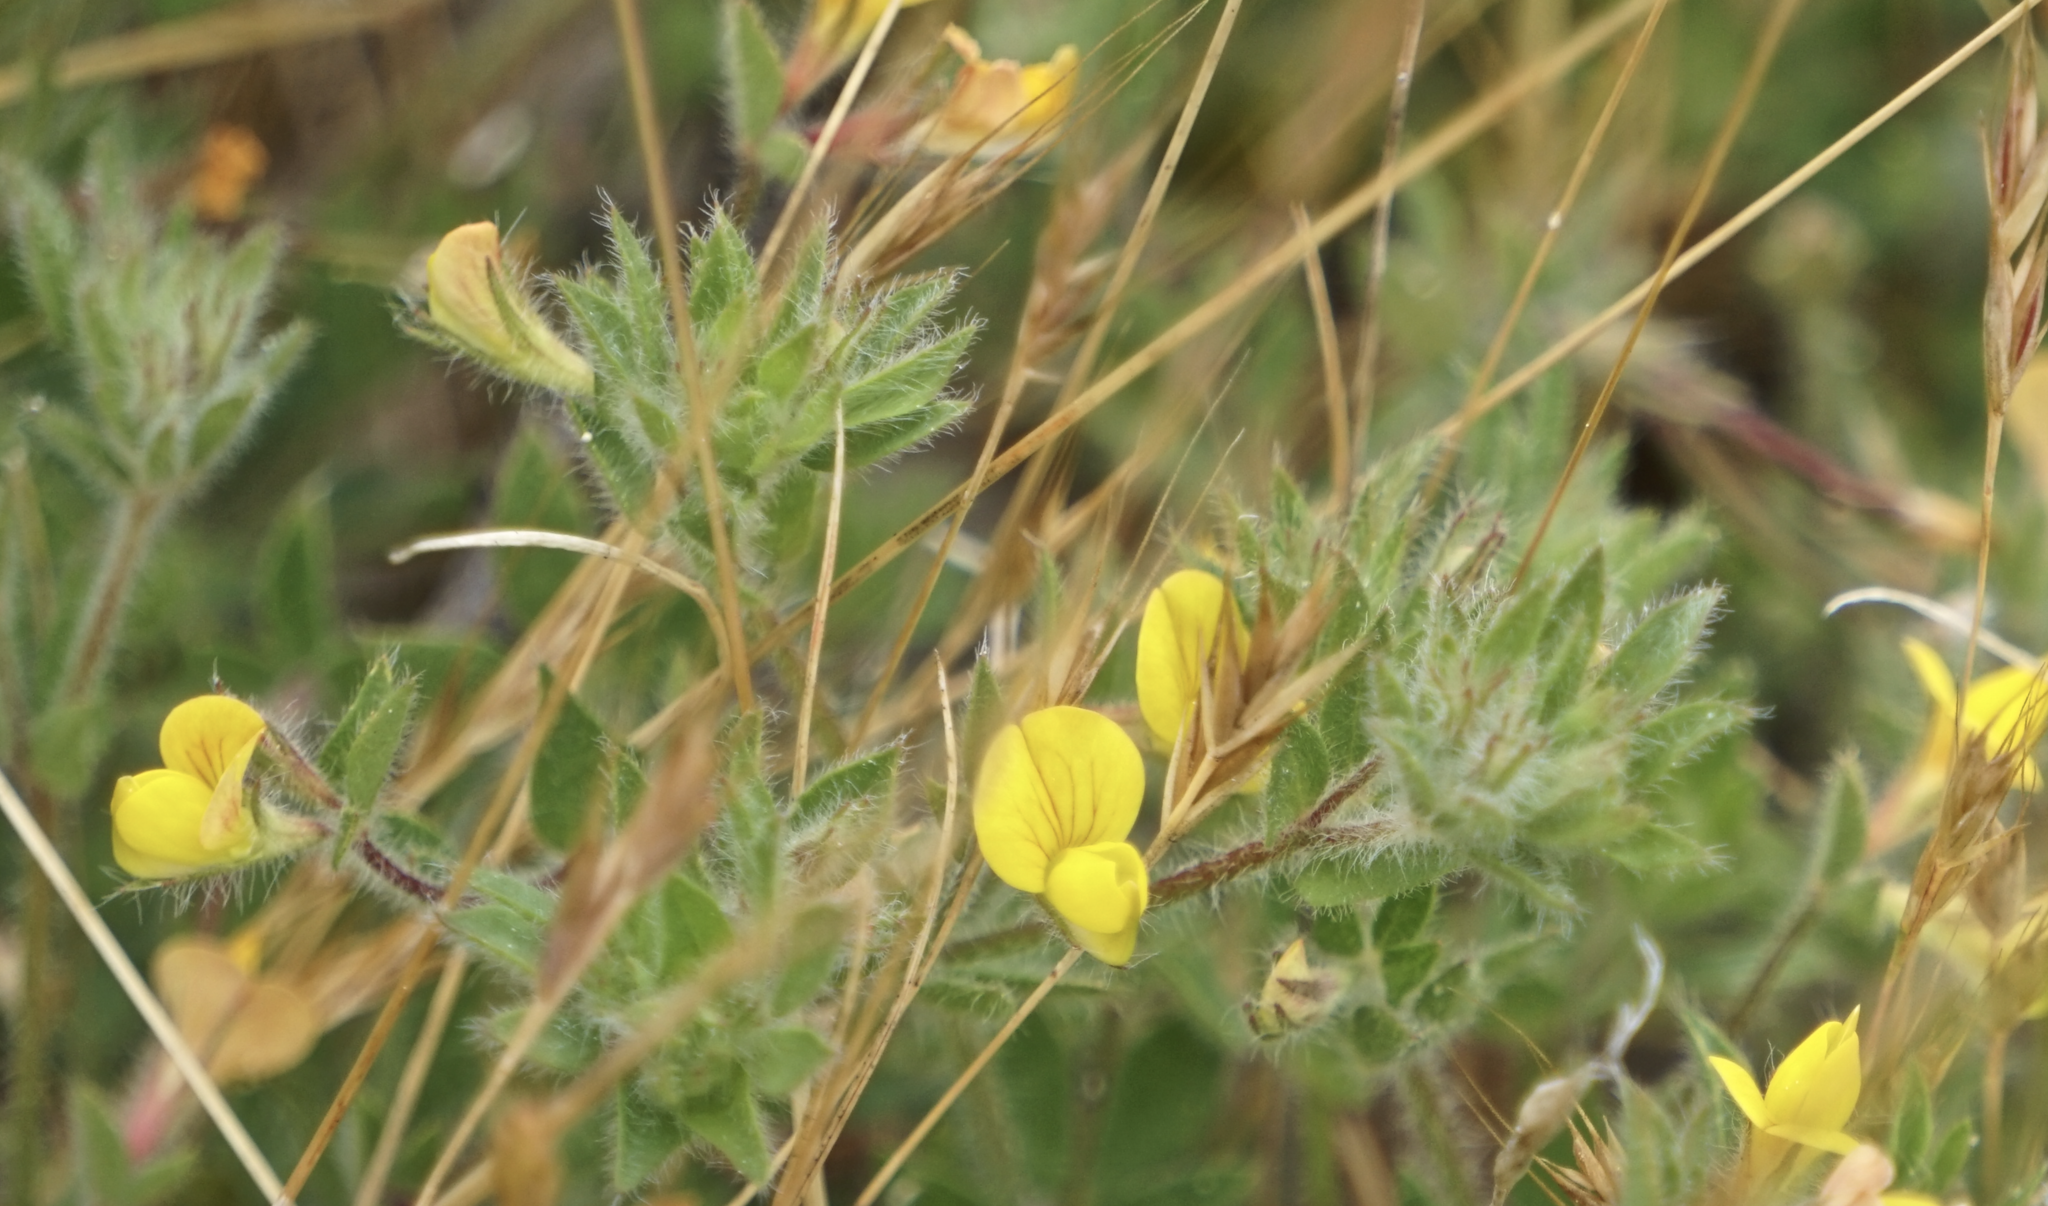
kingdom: Plantae
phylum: Tracheophyta
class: Magnoliopsida
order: Fabales
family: Fabaceae
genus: Lotus
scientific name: Lotus angustissimus
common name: Slender bird's-foot trefoil
